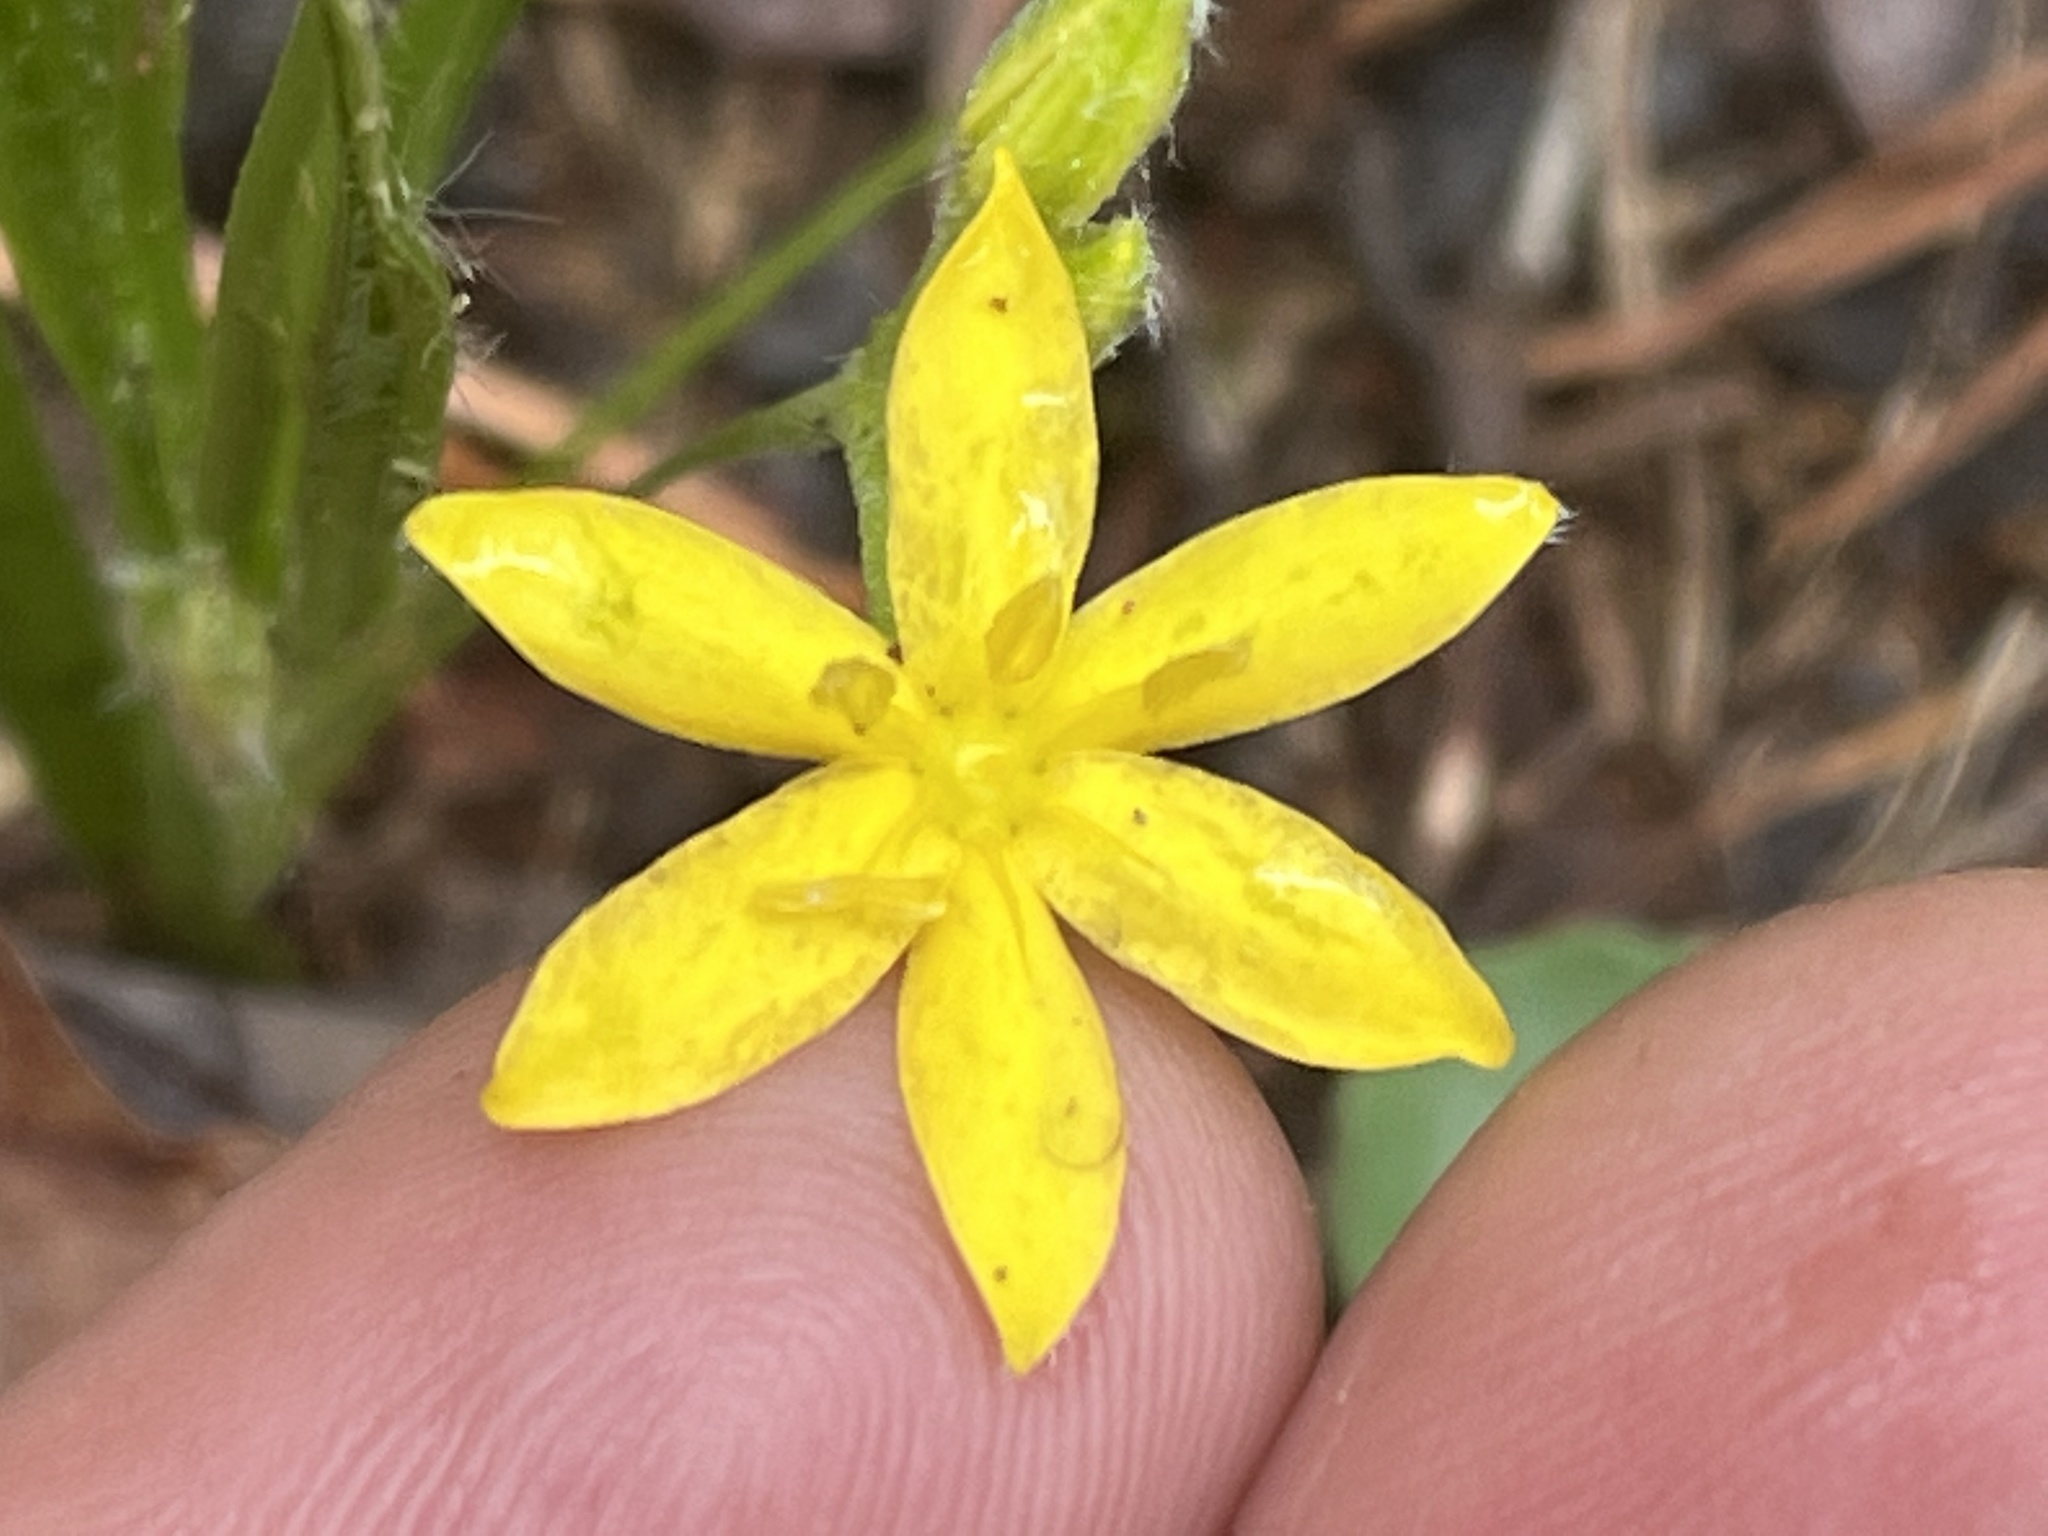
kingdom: Plantae
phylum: Tracheophyta
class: Liliopsida
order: Asparagales
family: Hypoxidaceae
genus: Hypoxis
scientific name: Hypoxis hirsuta
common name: Common goldstar
